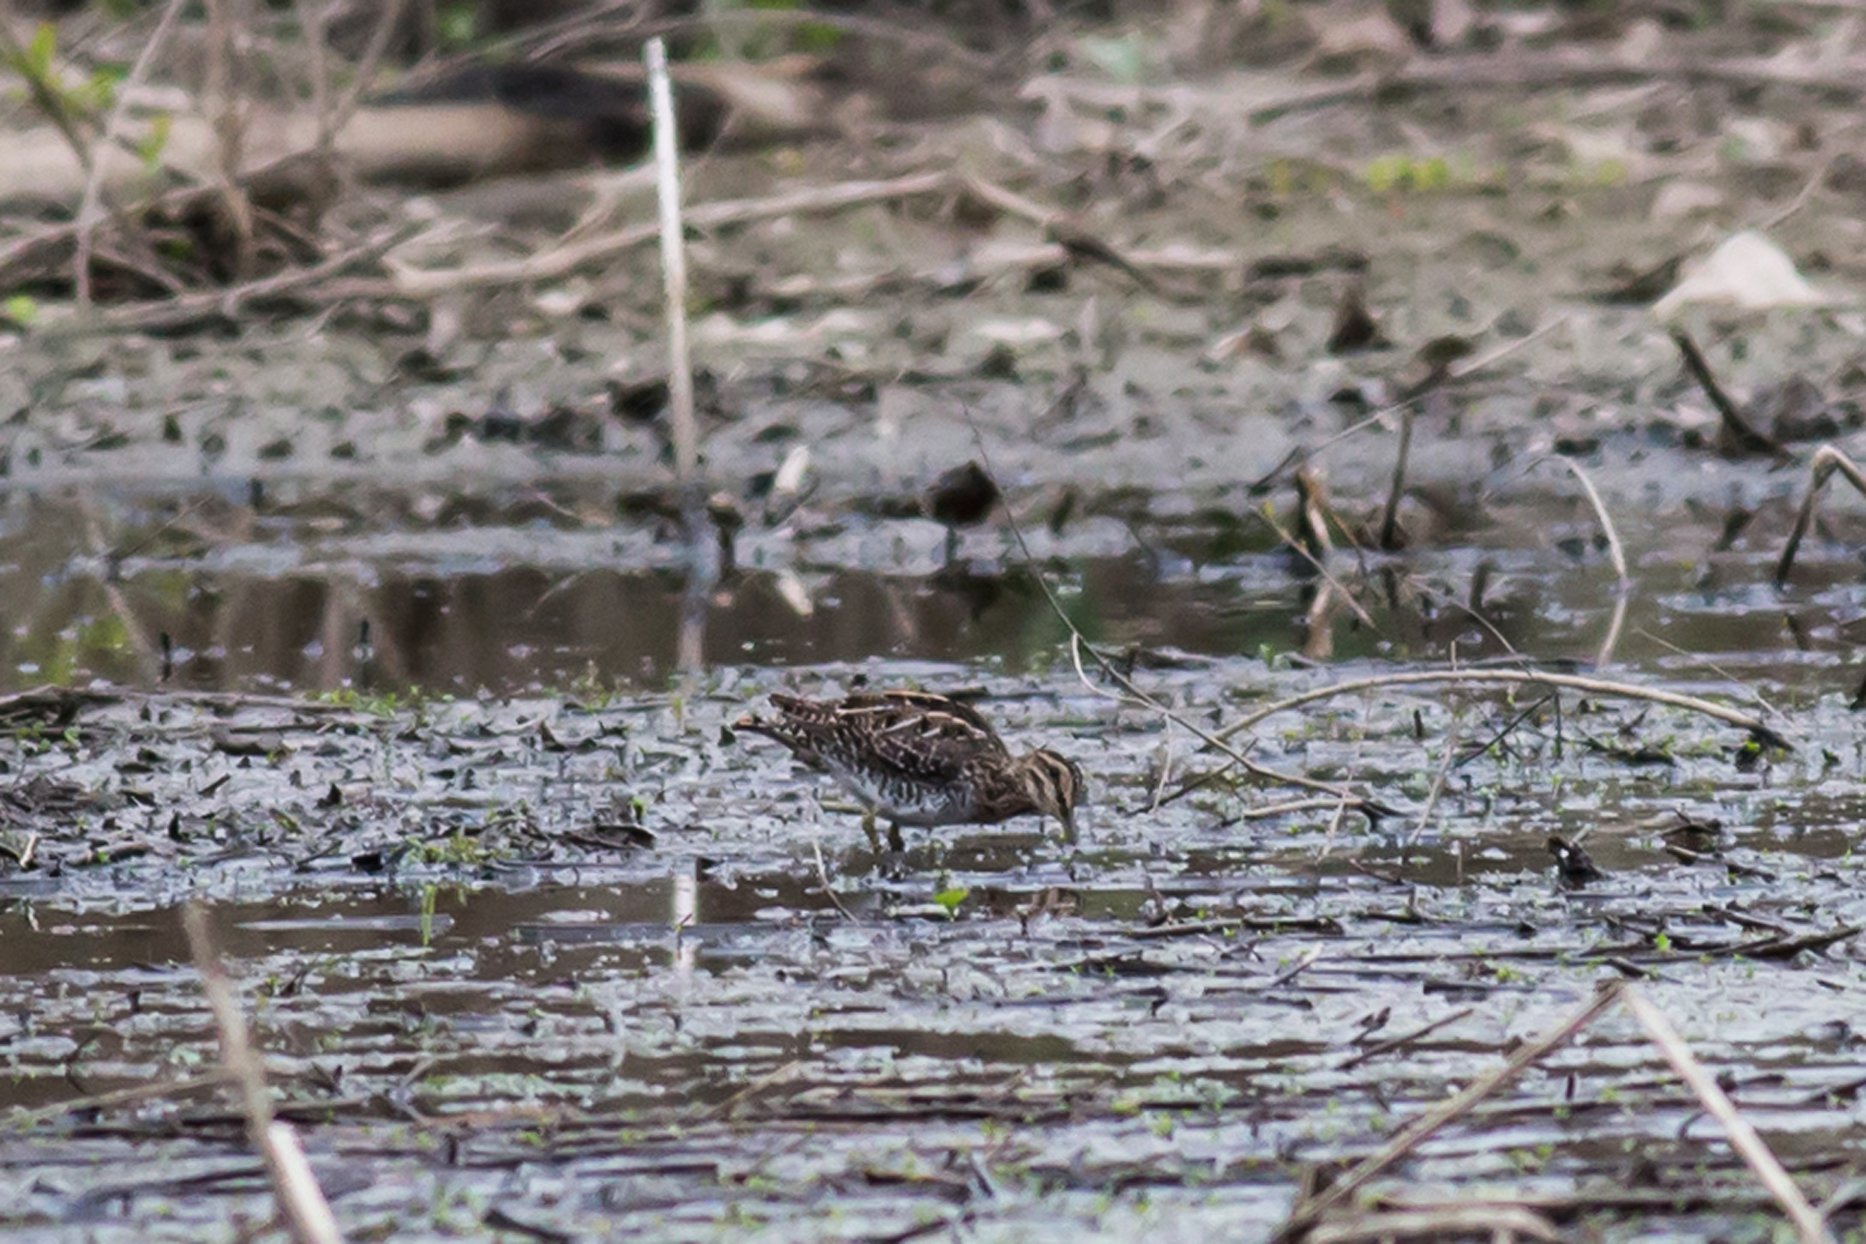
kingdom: Animalia
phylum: Chordata
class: Aves
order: Charadriiformes
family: Scolopacidae
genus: Gallinago
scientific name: Gallinago delicata
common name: Wilson's snipe
